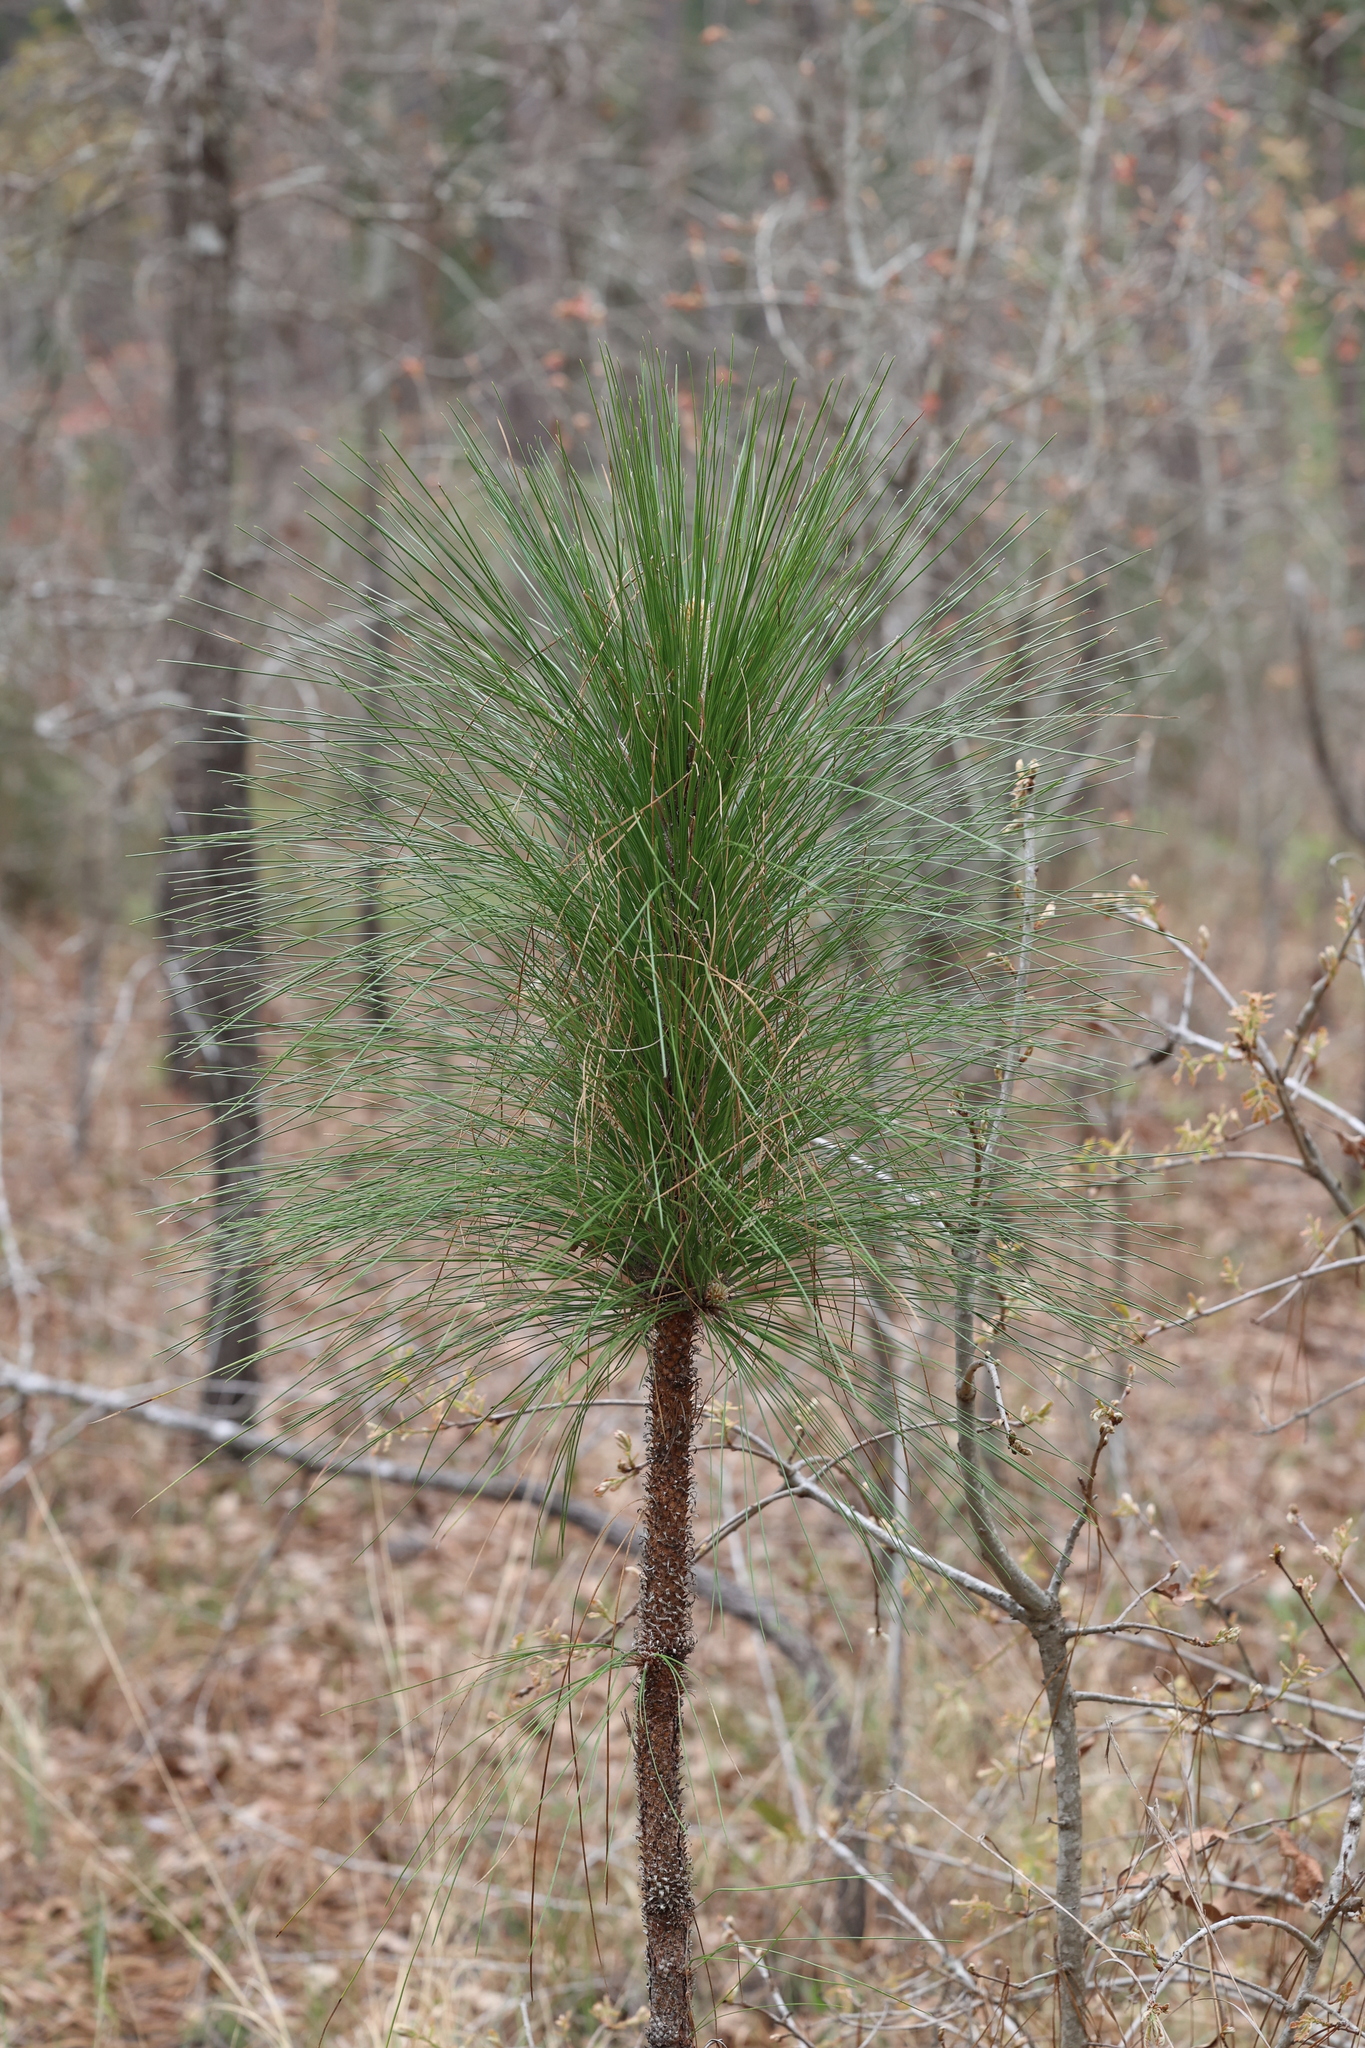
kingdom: Plantae
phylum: Tracheophyta
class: Pinopsida
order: Pinales
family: Pinaceae
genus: Pinus
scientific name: Pinus palustris
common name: Longleaf pine
